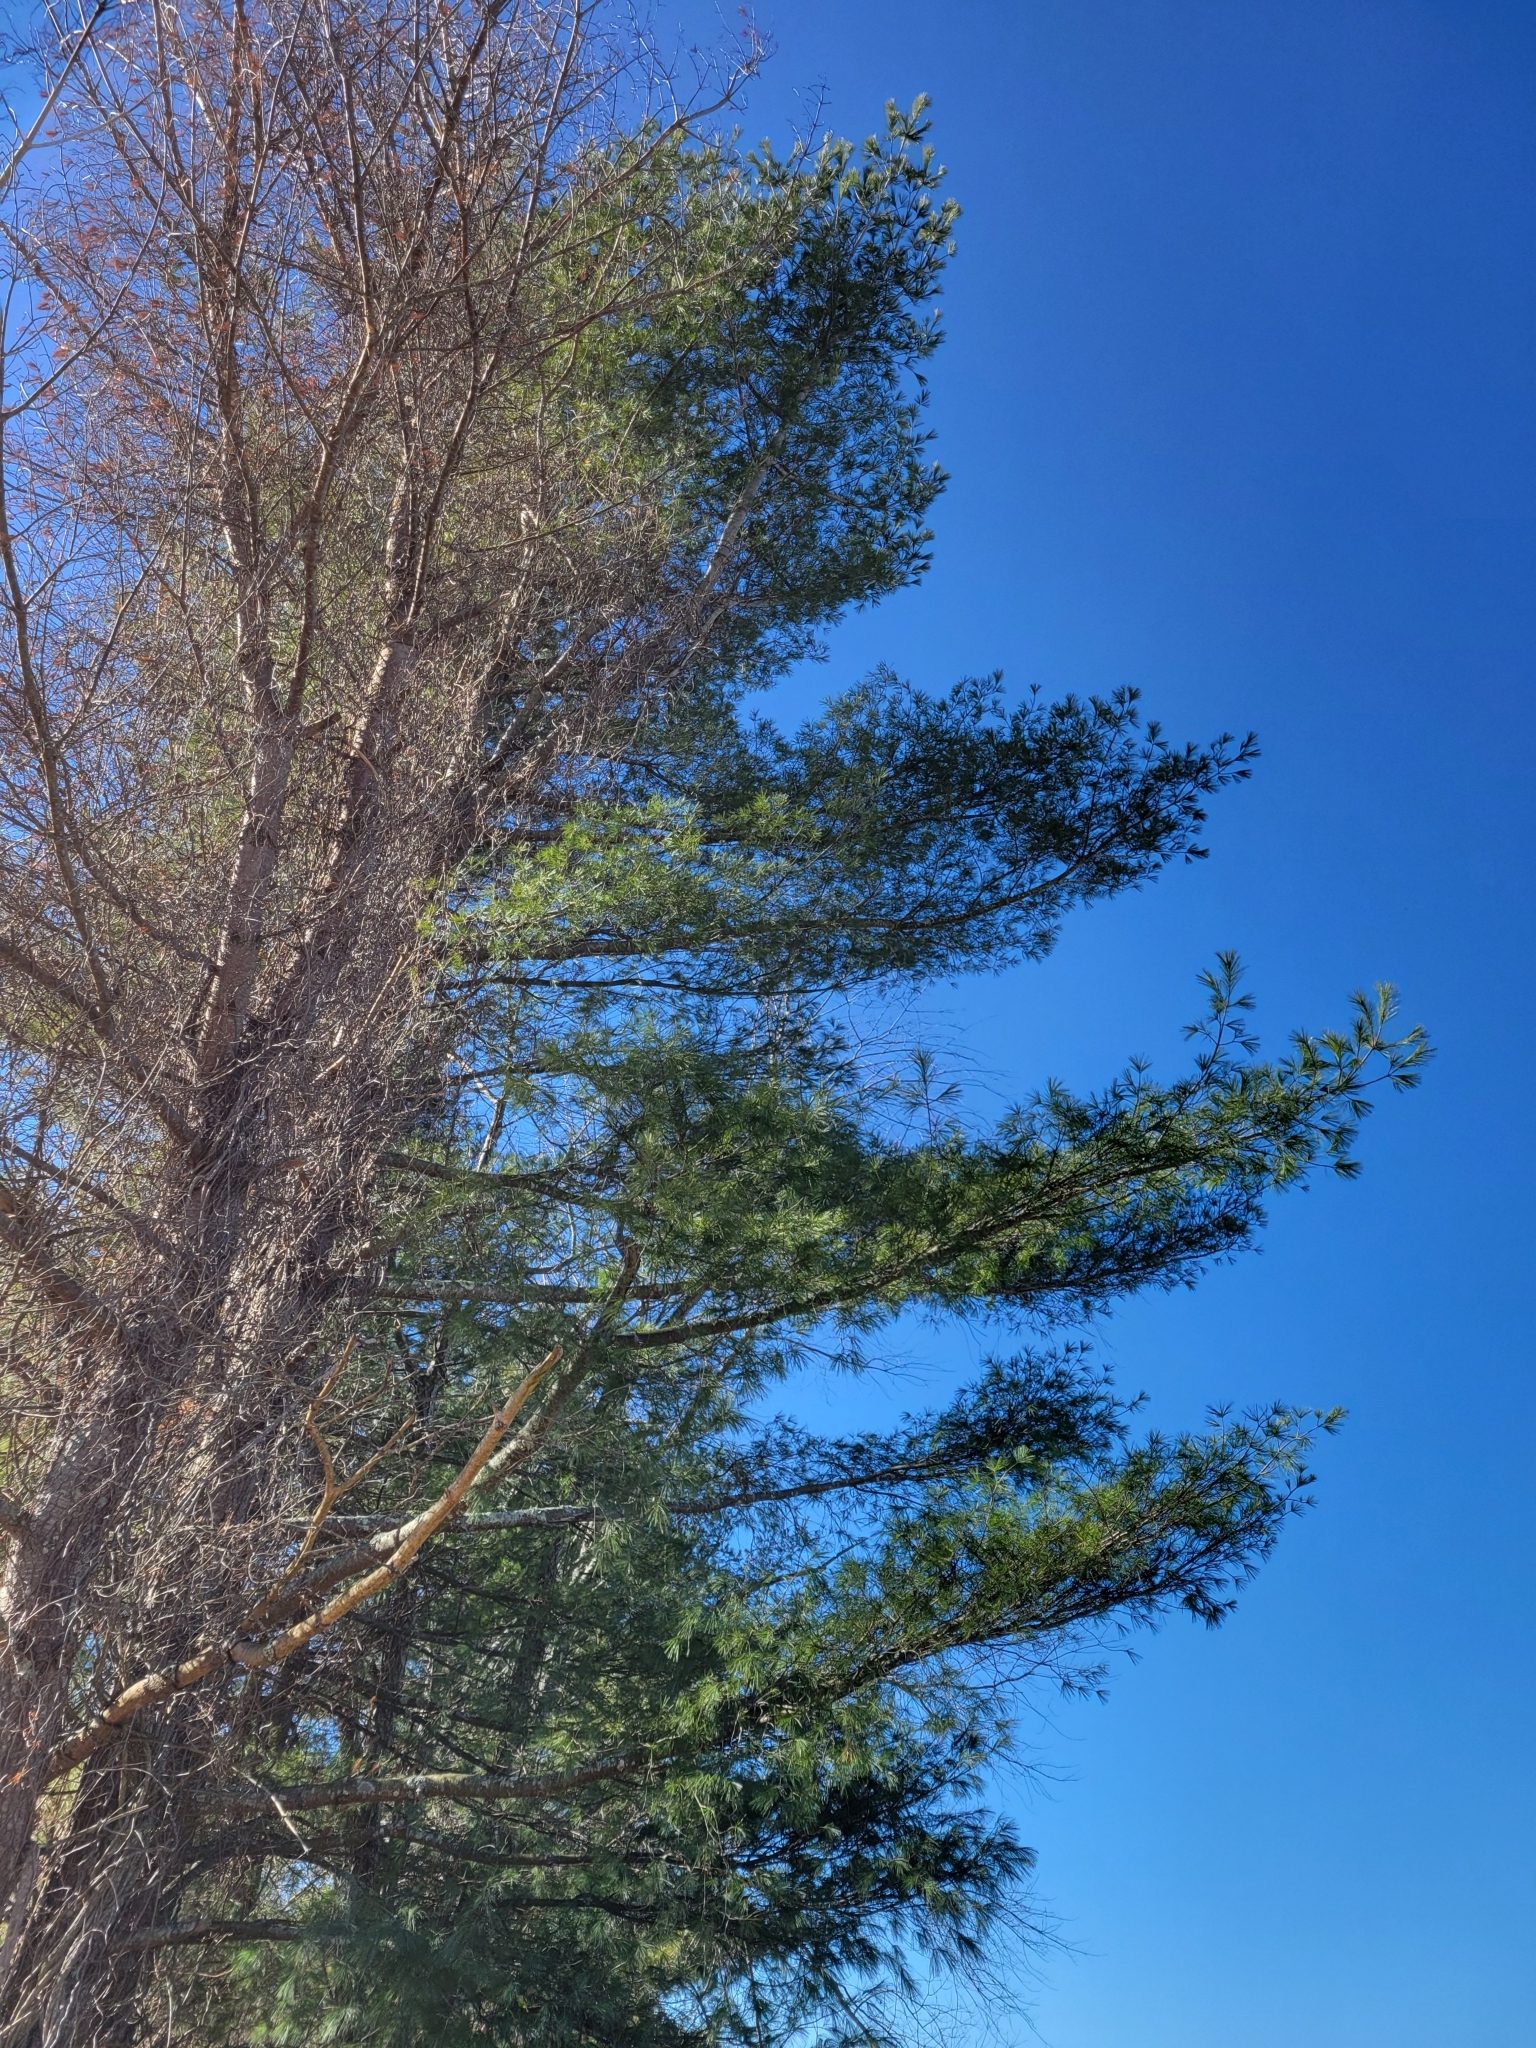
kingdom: Plantae
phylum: Tracheophyta
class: Pinopsida
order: Pinales
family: Pinaceae
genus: Pinus
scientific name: Pinus strobus
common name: Weymouth pine
